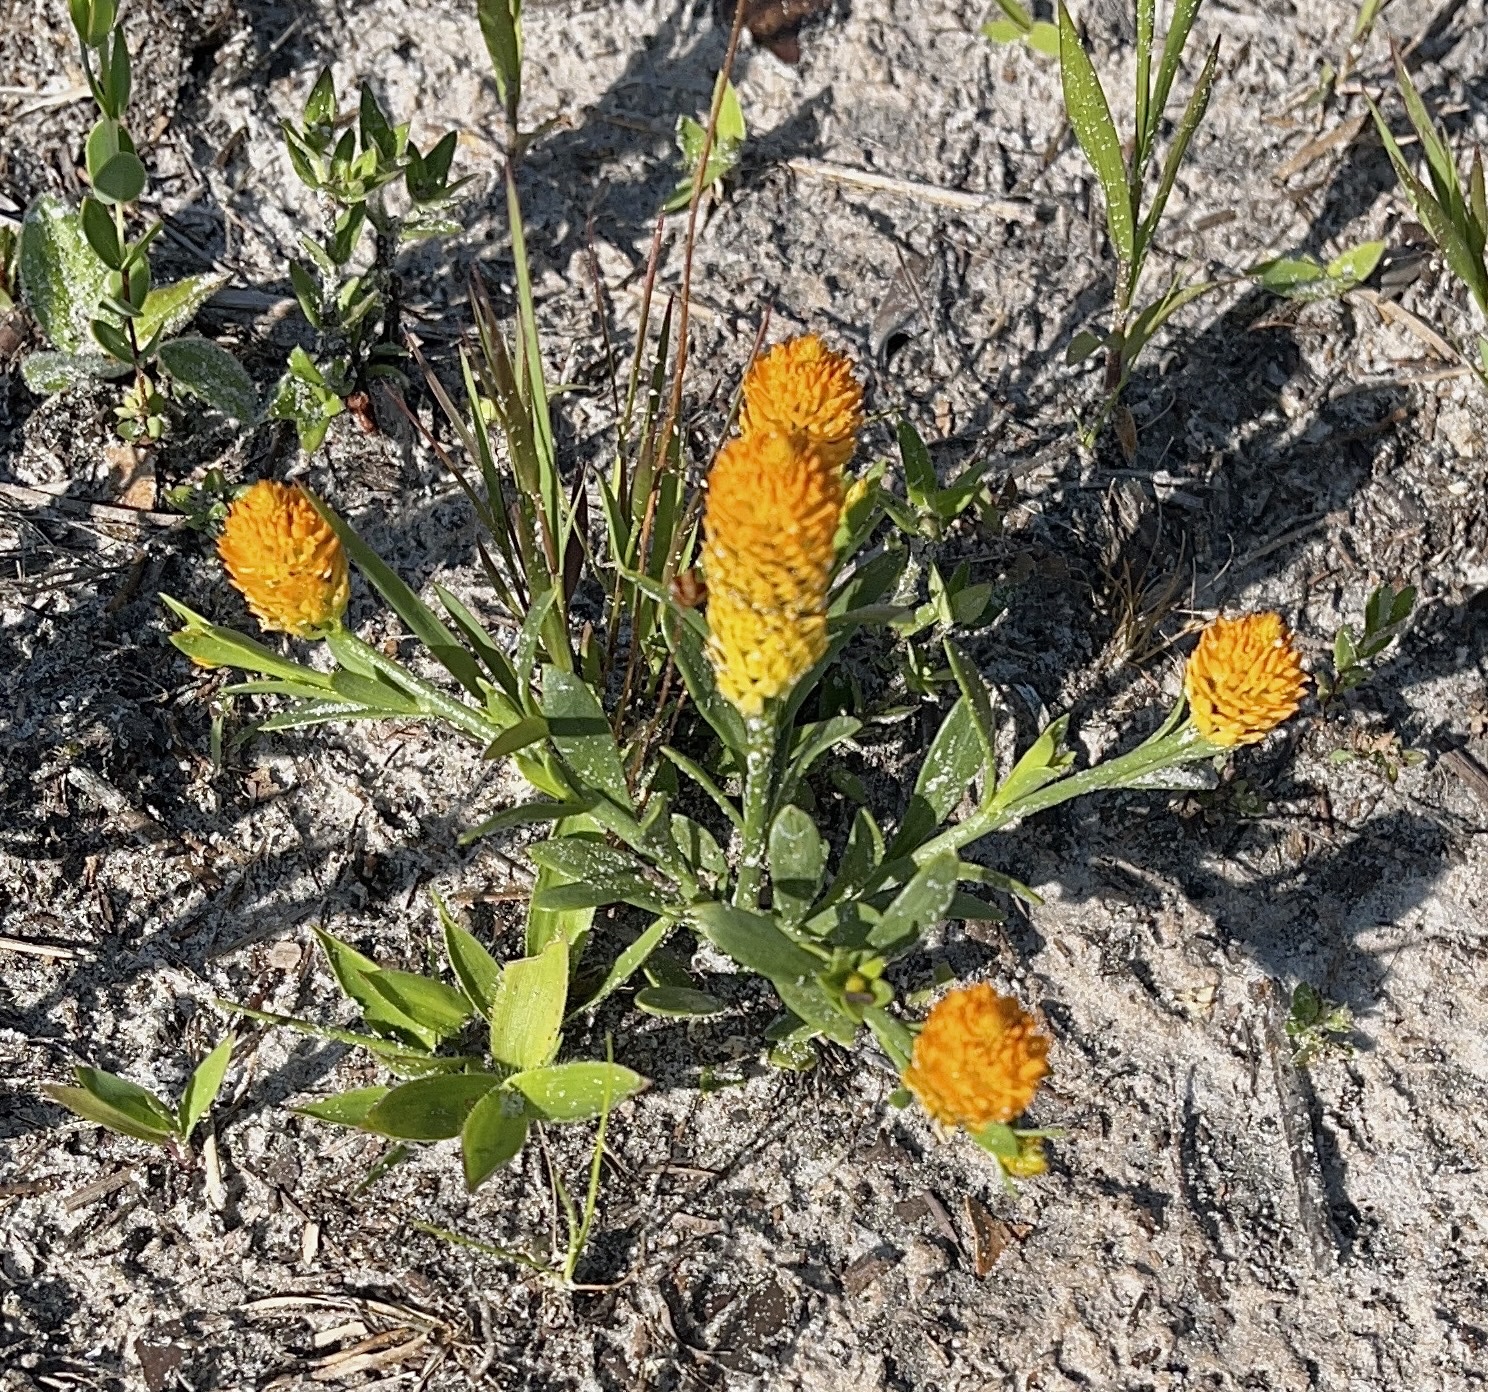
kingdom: Plantae
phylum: Tracheophyta
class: Magnoliopsida
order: Fabales
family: Polygalaceae
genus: Polygala
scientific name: Polygala lutea
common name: Orange milkwort
